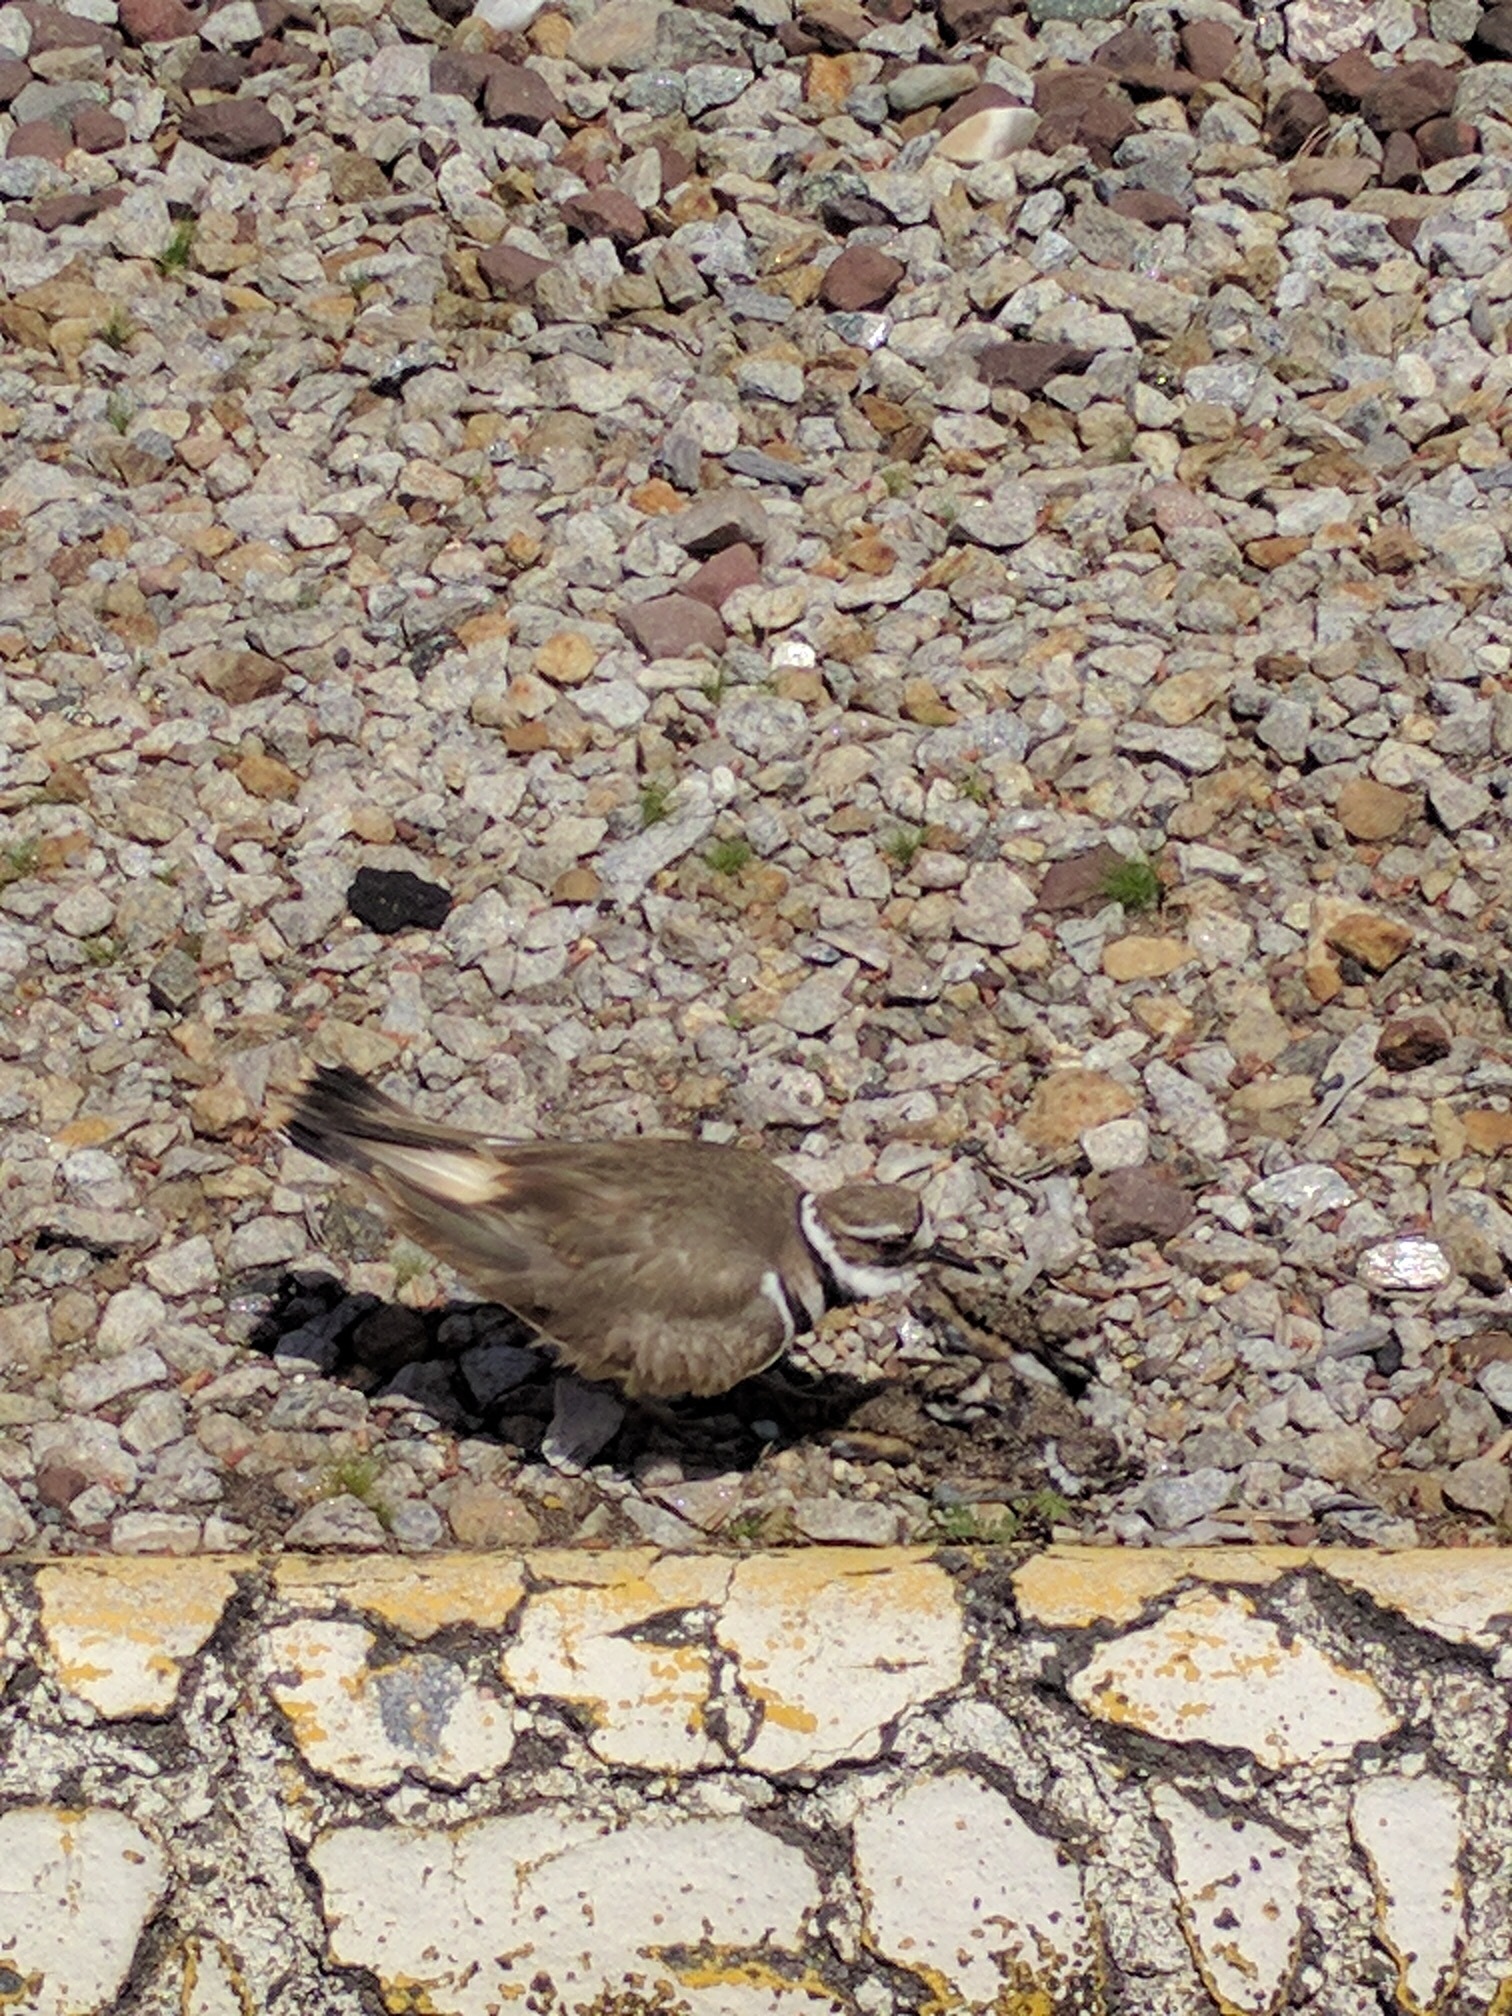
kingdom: Animalia
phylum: Chordata
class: Aves
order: Charadriiformes
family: Charadriidae
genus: Charadrius
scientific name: Charadrius vociferus
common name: Killdeer
